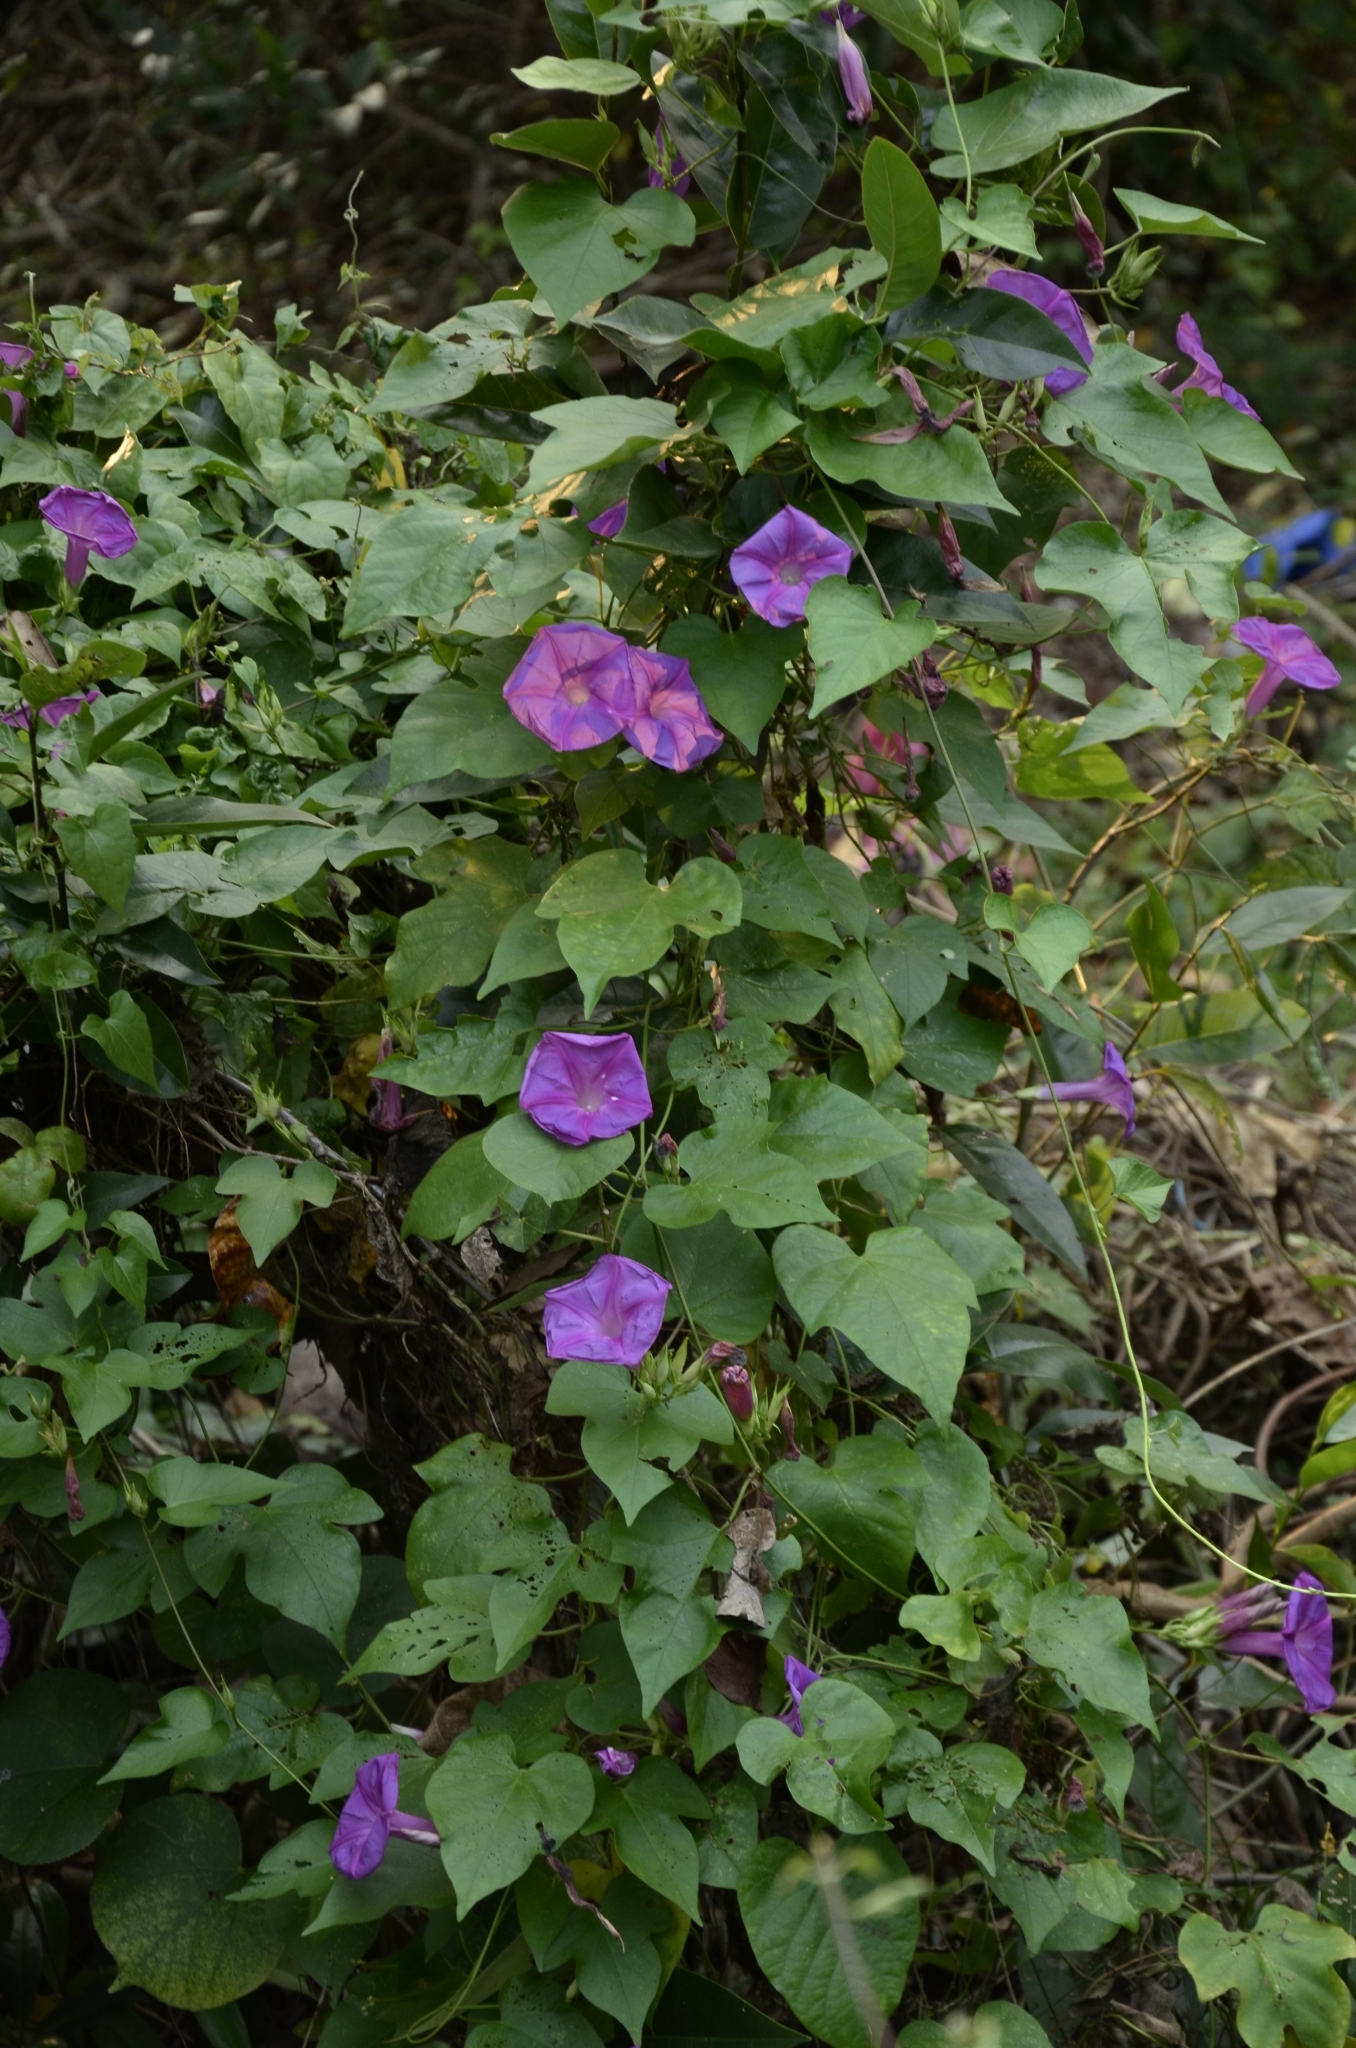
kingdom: Plantae
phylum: Tracheophyta
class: Magnoliopsida
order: Solanales
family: Convolvulaceae
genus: Ipomoea
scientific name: Ipomoea indica
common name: Blue dawnflower
